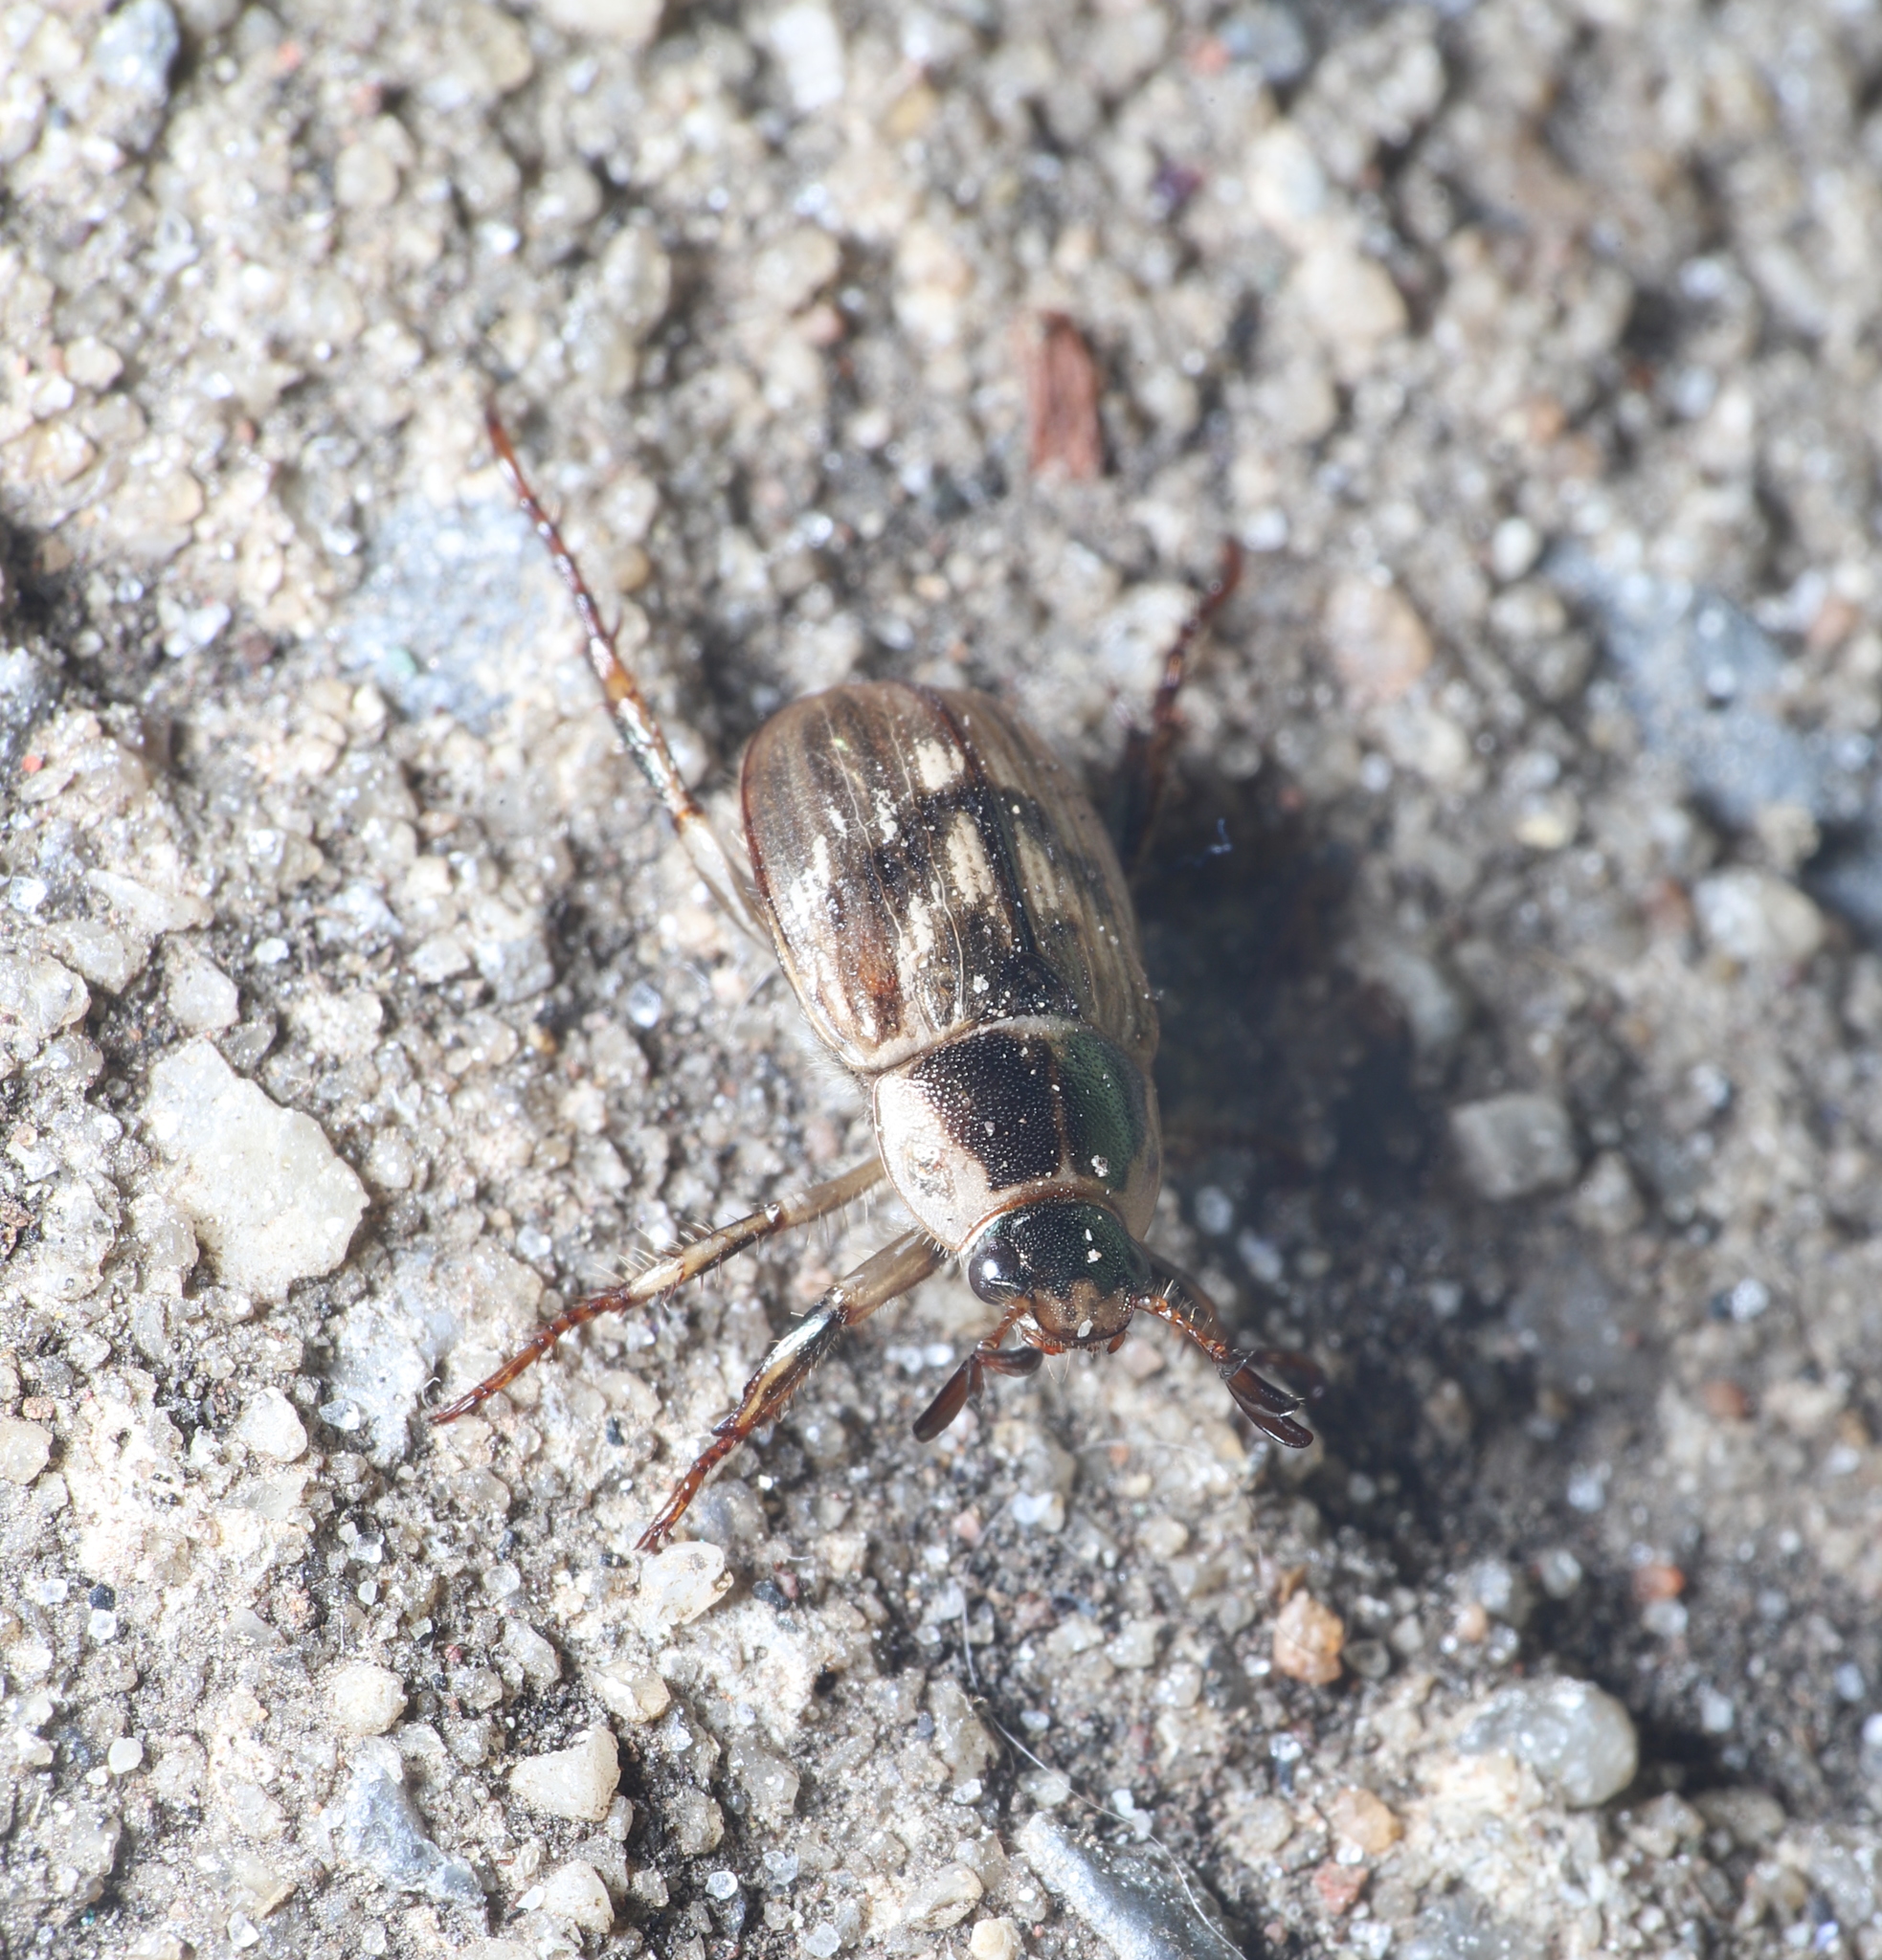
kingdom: Animalia
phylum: Arthropoda
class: Insecta
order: Coleoptera
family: Scarabaeidae
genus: Exomala
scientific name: Exomala orientalis
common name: Oriental beetle
